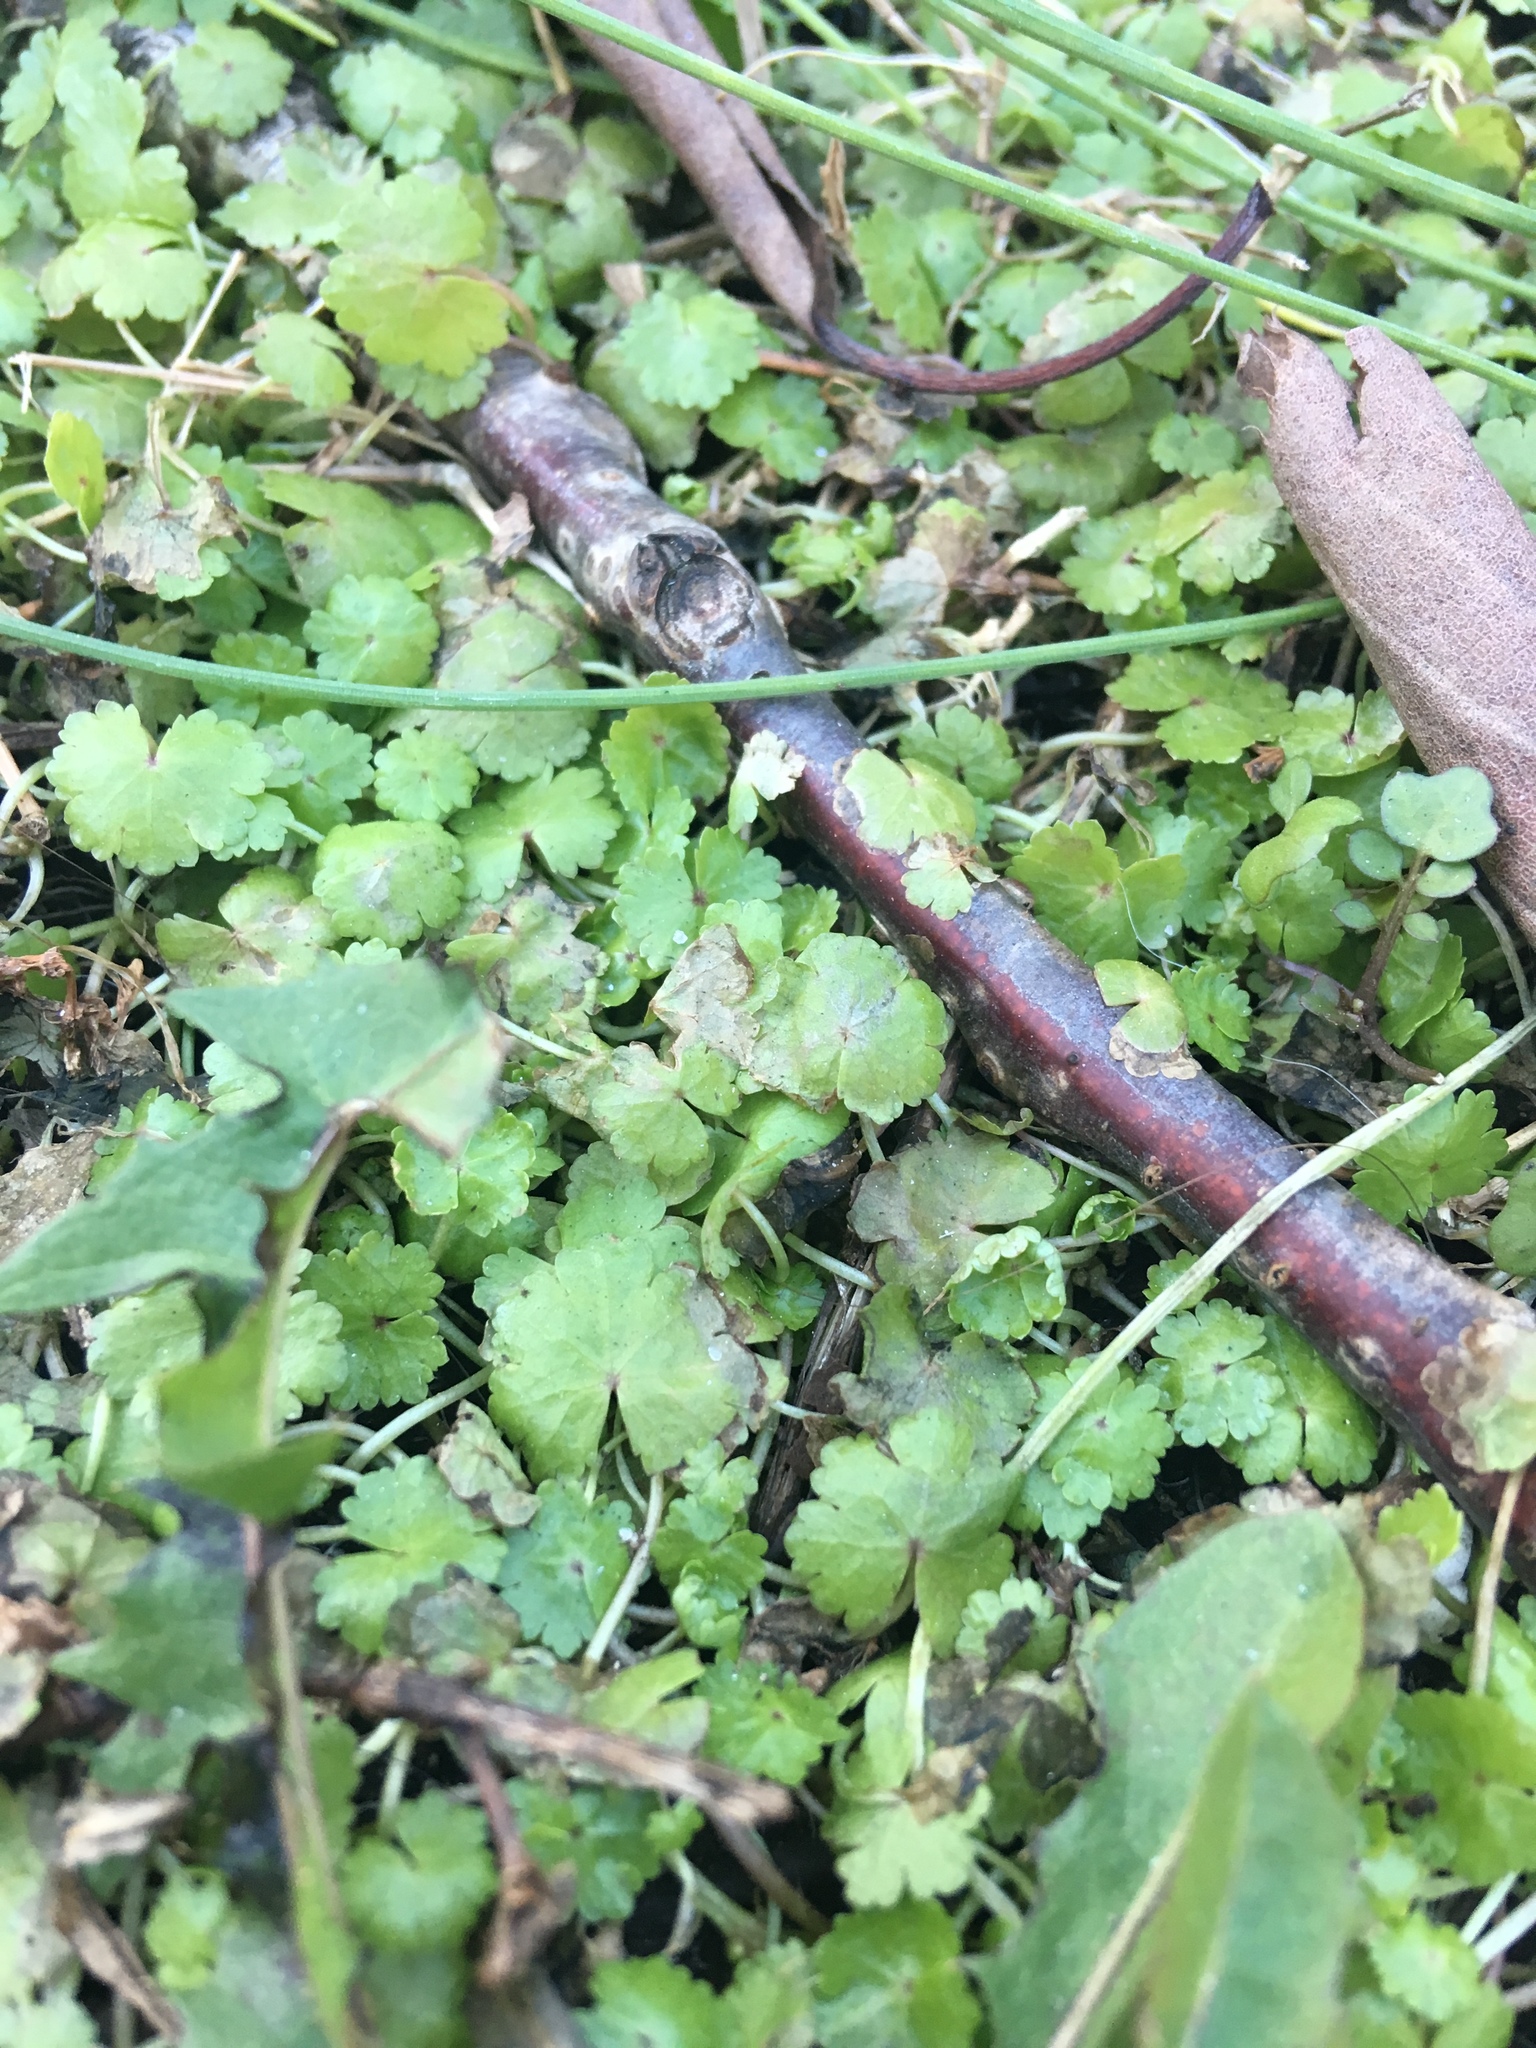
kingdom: Plantae
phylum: Tracheophyta
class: Magnoliopsida
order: Apiales
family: Araliaceae
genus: Hydrocotyle
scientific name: Hydrocotyle sibthorpioides
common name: Lawn marshpennywort
